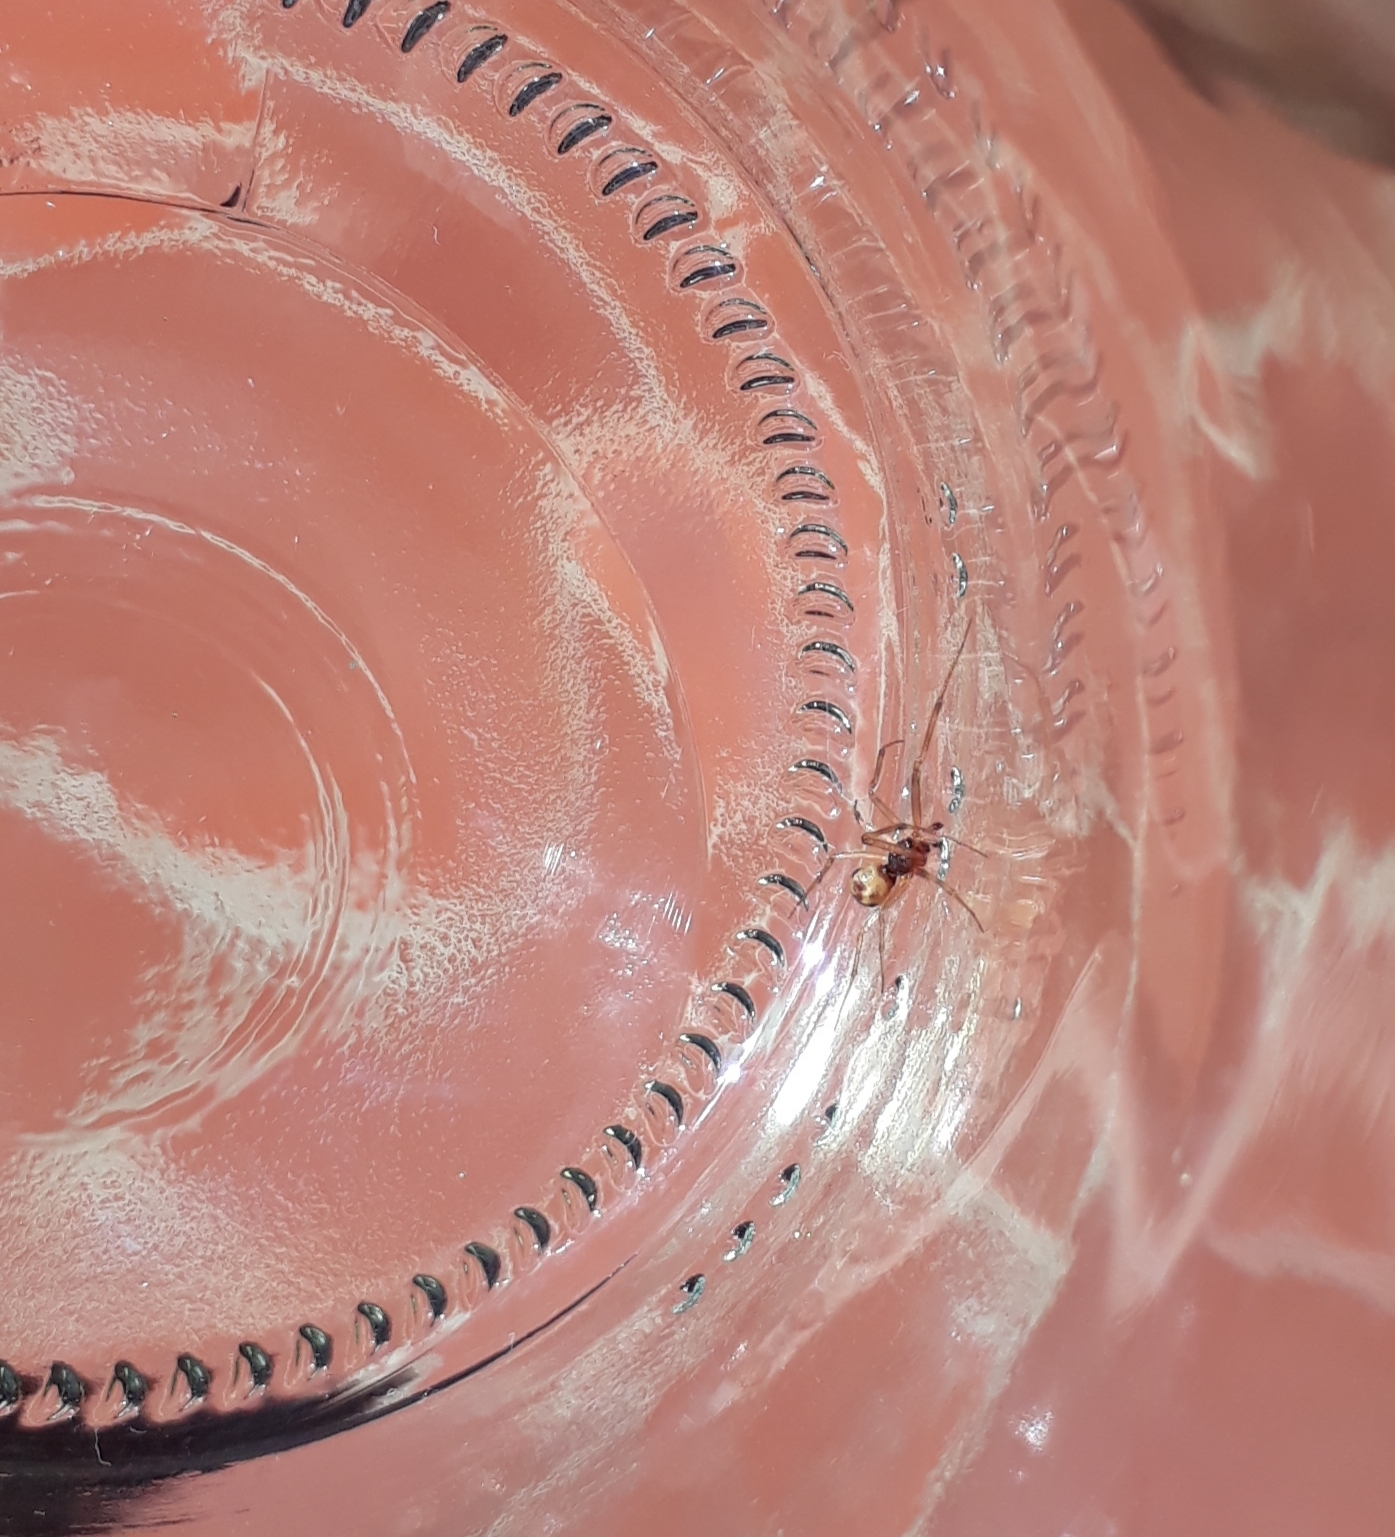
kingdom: Animalia
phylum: Arthropoda
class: Arachnida
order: Araneae
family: Theridiidae
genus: Steatoda
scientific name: Steatoda triangulosa
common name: Triangulate bud spider
